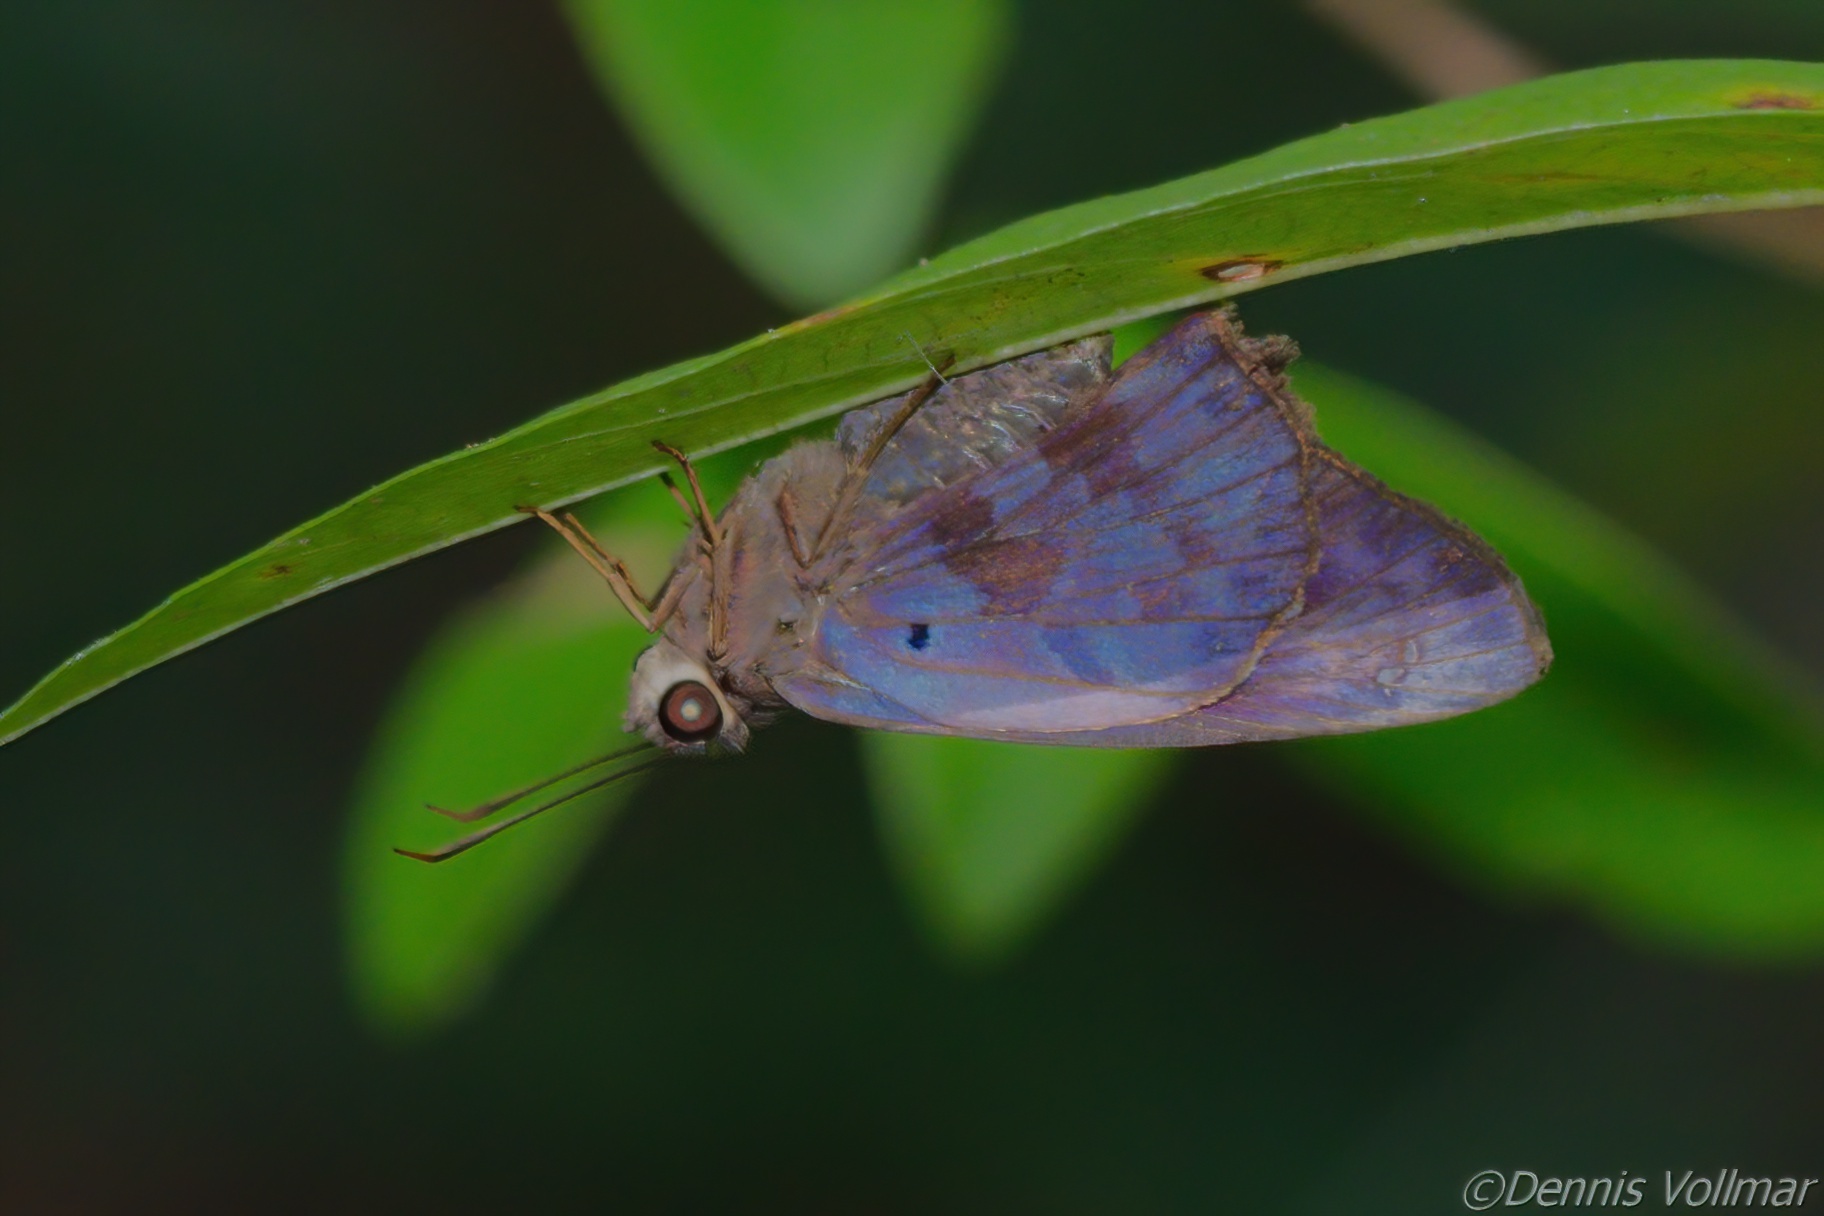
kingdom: Animalia
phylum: Arthropoda
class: Insecta
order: Lepidoptera
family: Hesperiidae
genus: Polygonus
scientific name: Polygonus leo
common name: Hammoch skipper
